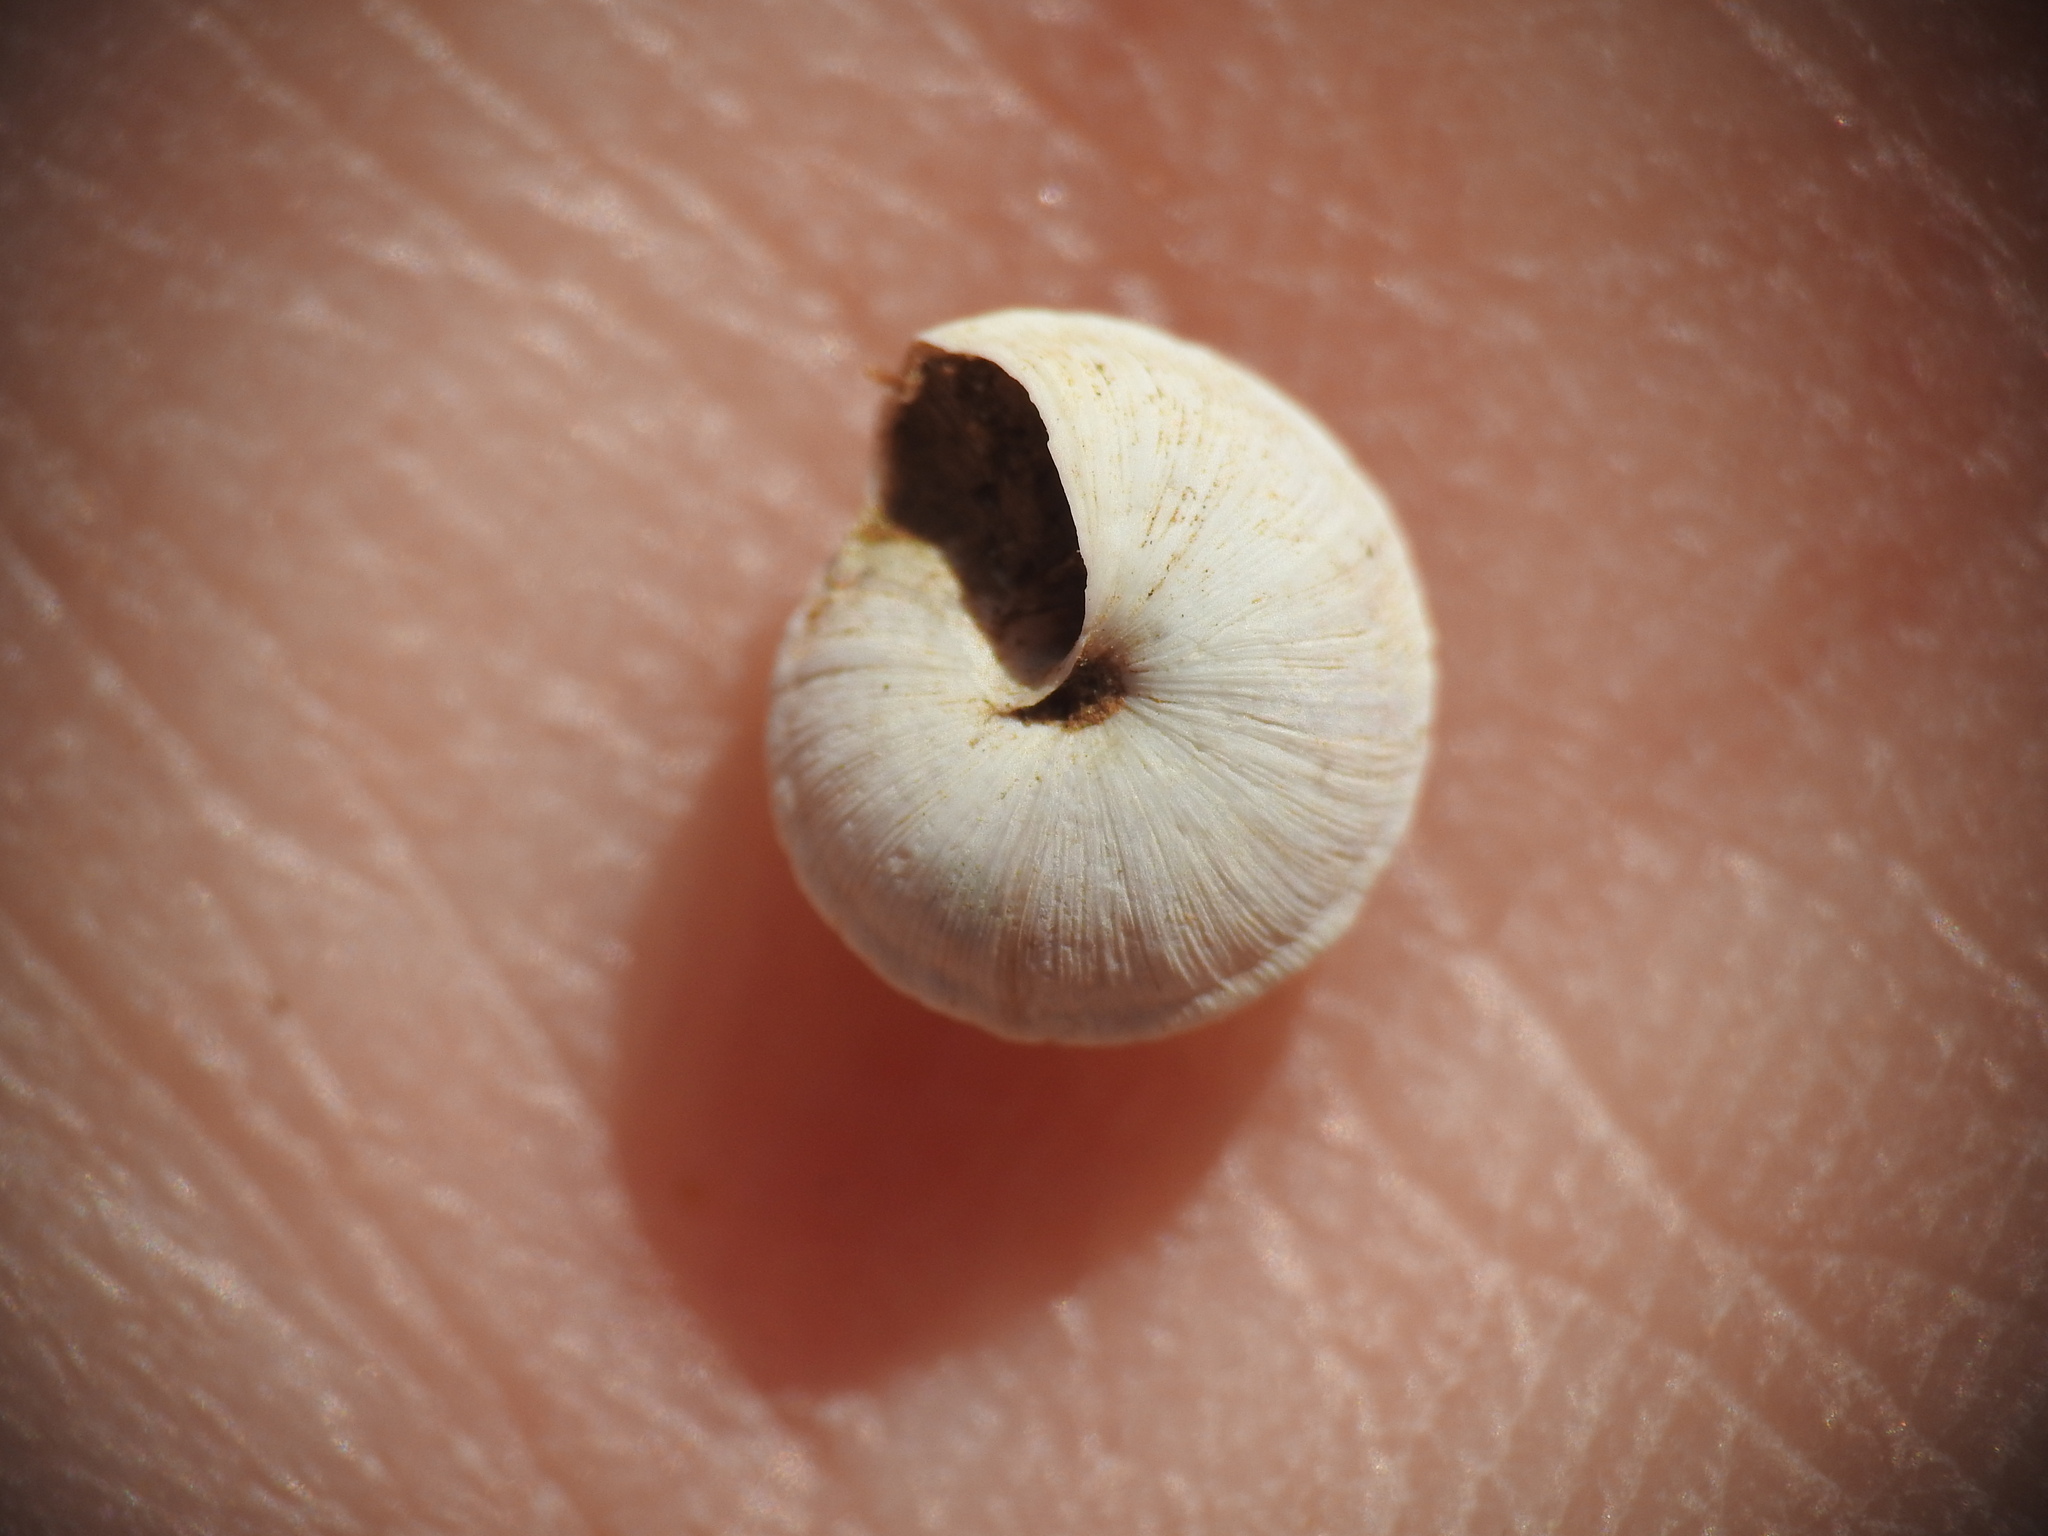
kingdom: Animalia
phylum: Mollusca
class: Gastropoda
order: Stylommatophora
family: Geomitridae
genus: Xerocrassa
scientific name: Xerocrassa mesostena
